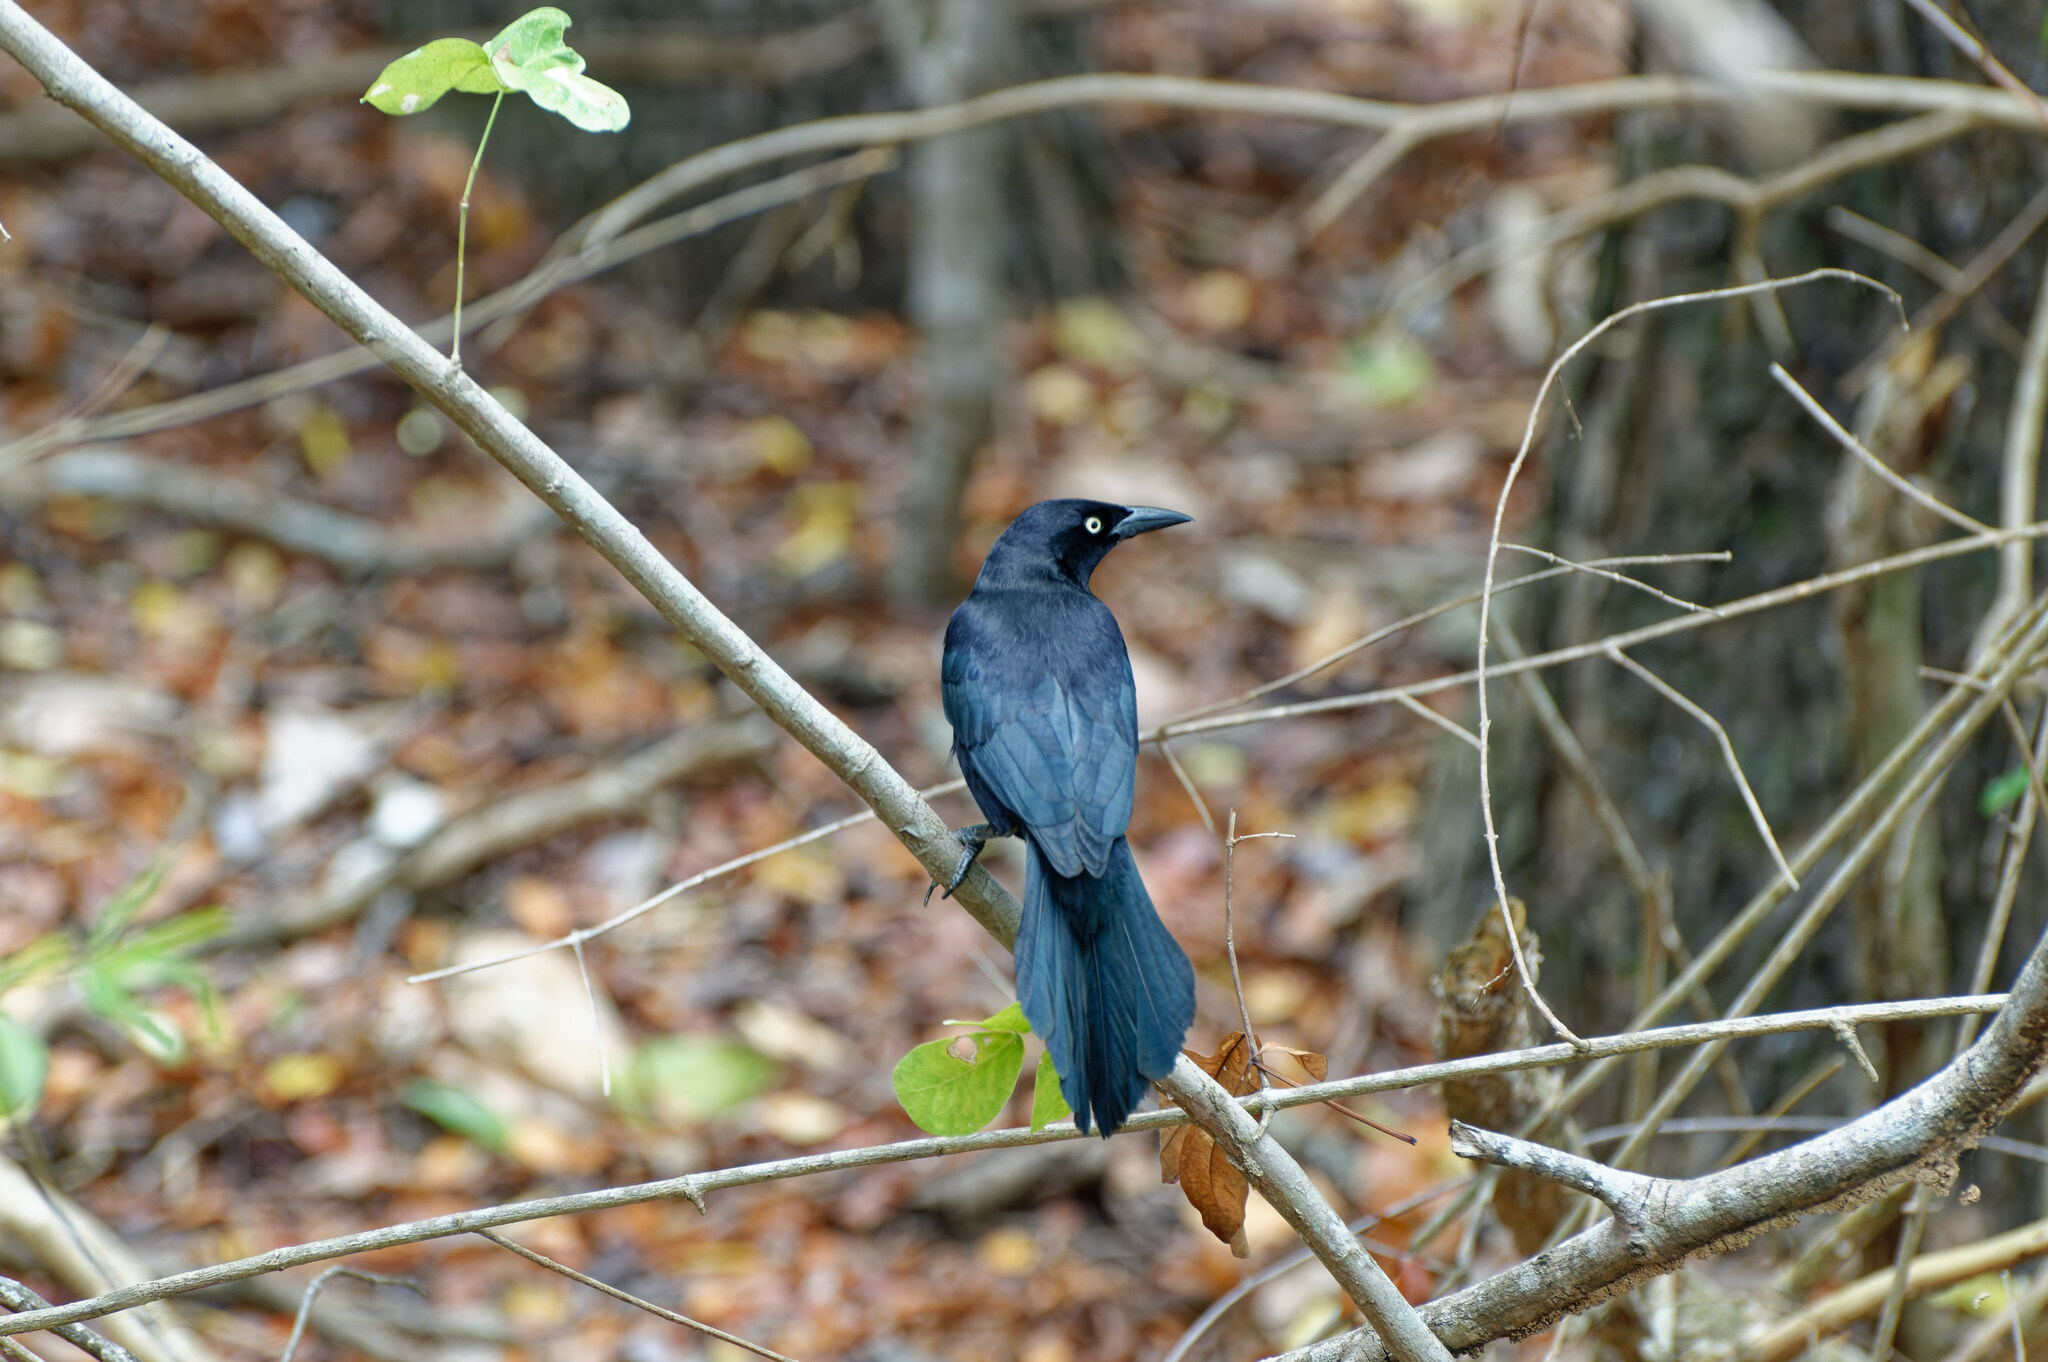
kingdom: Animalia
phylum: Chordata
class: Aves
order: Passeriformes
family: Icteridae
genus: Quiscalus
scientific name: Quiscalus lugubris
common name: Carib grackle
